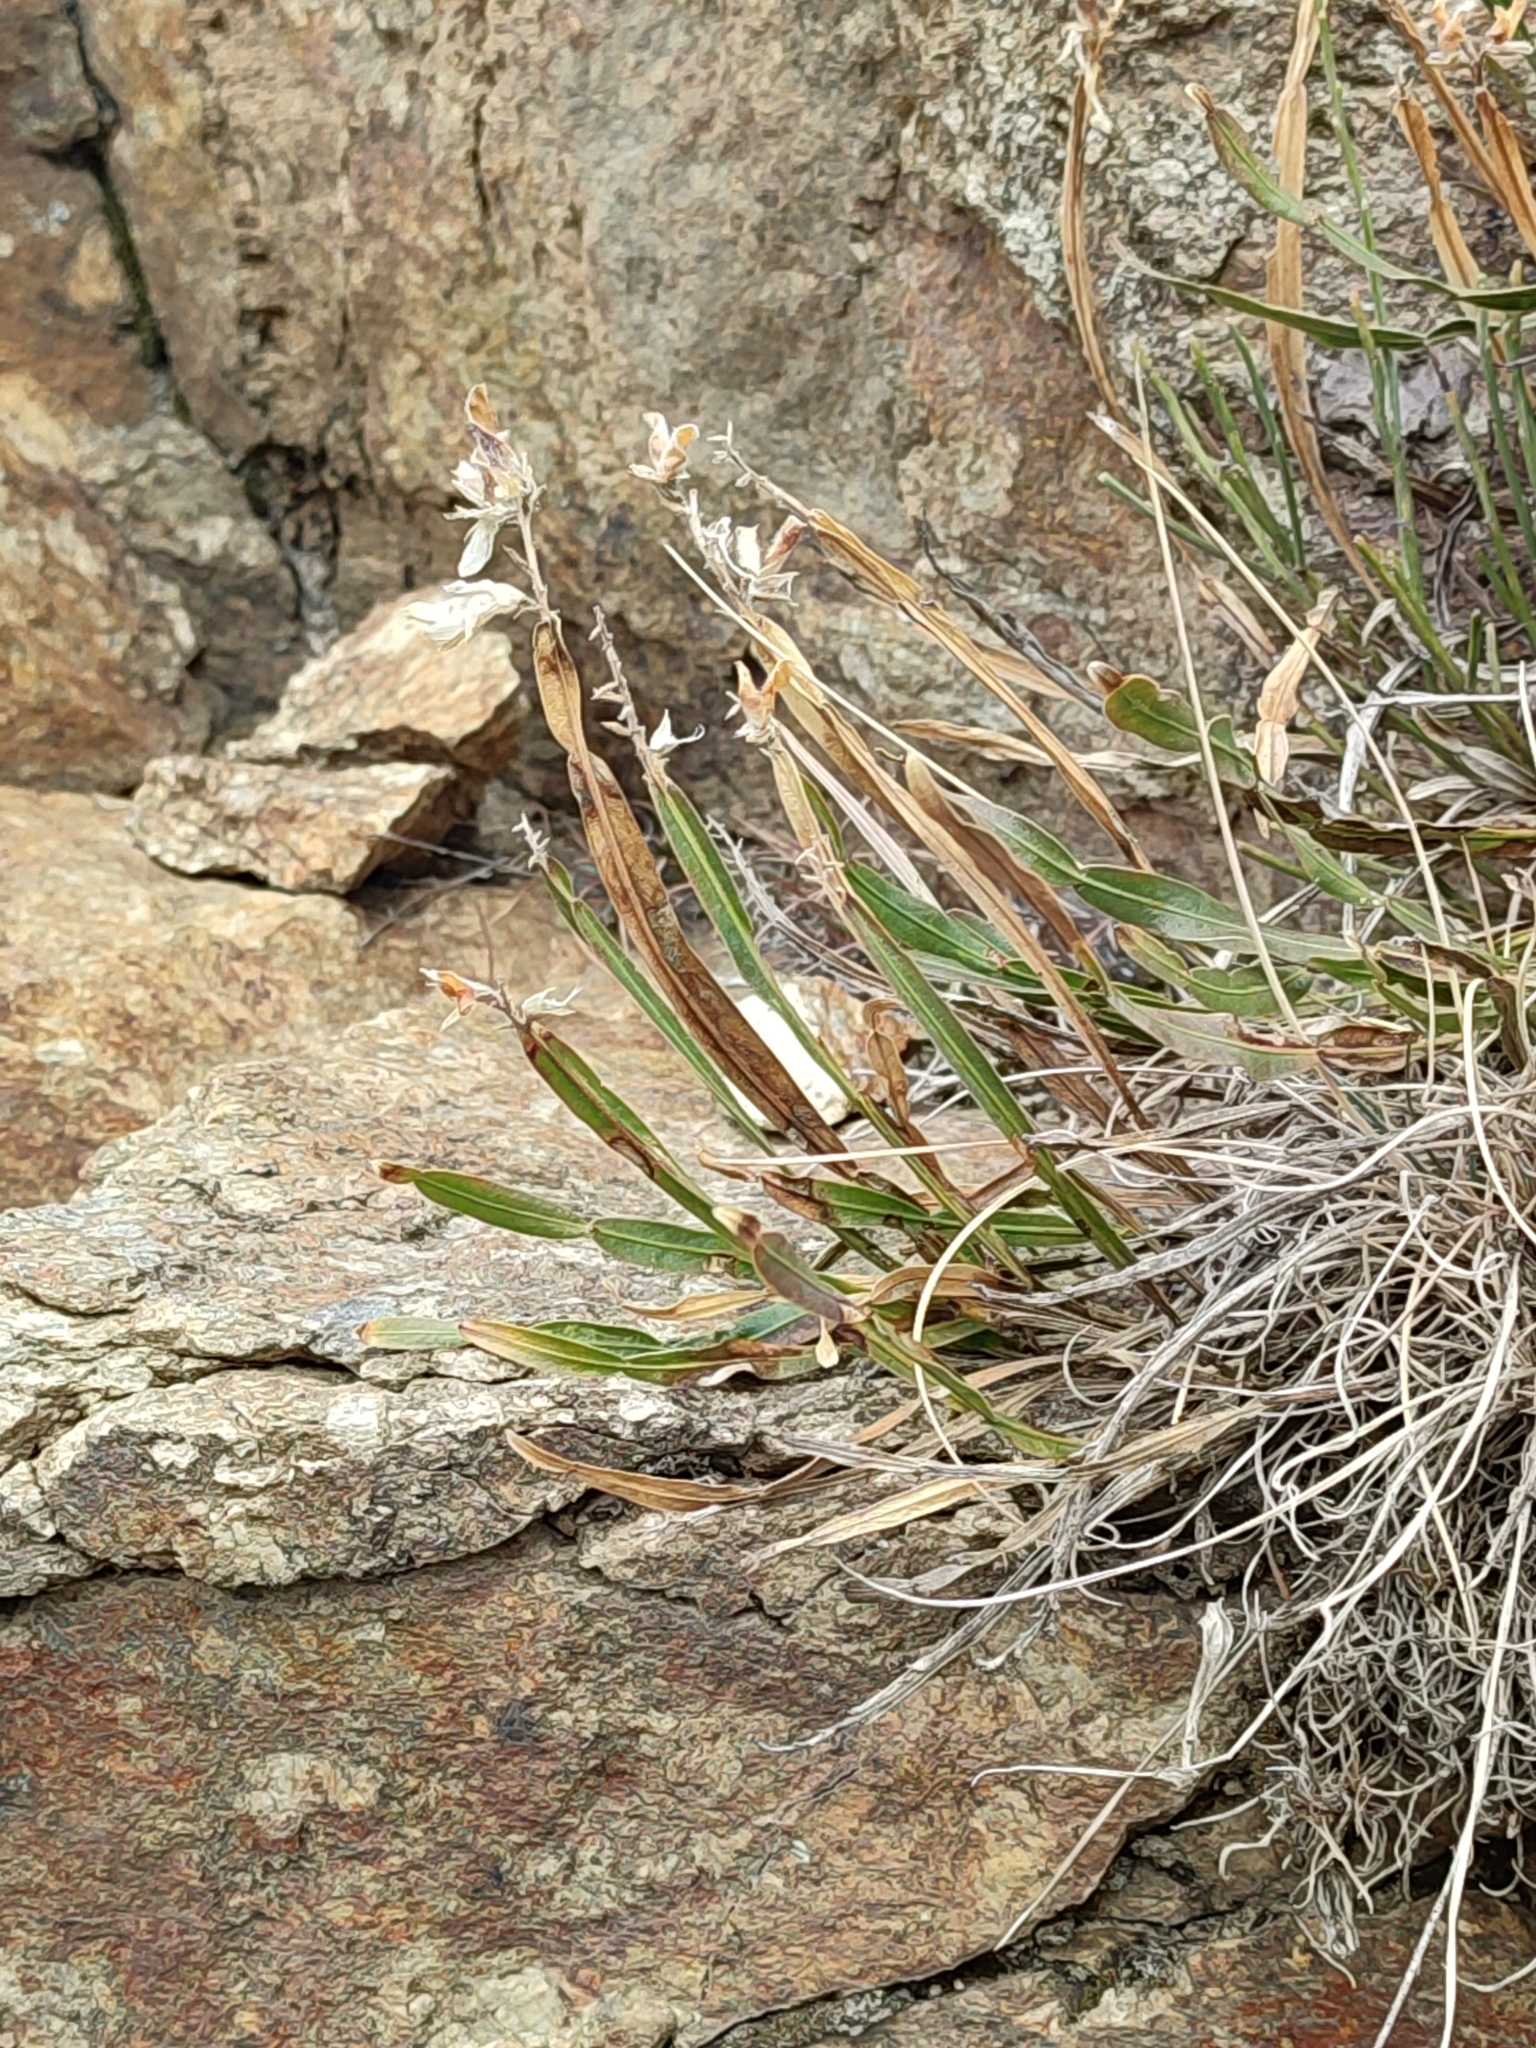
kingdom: Plantae
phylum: Tracheophyta
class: Magnoliopsida
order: Fabales
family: Fabaceae
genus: Genista
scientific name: Genista sagittalis
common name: Winged greenweed
